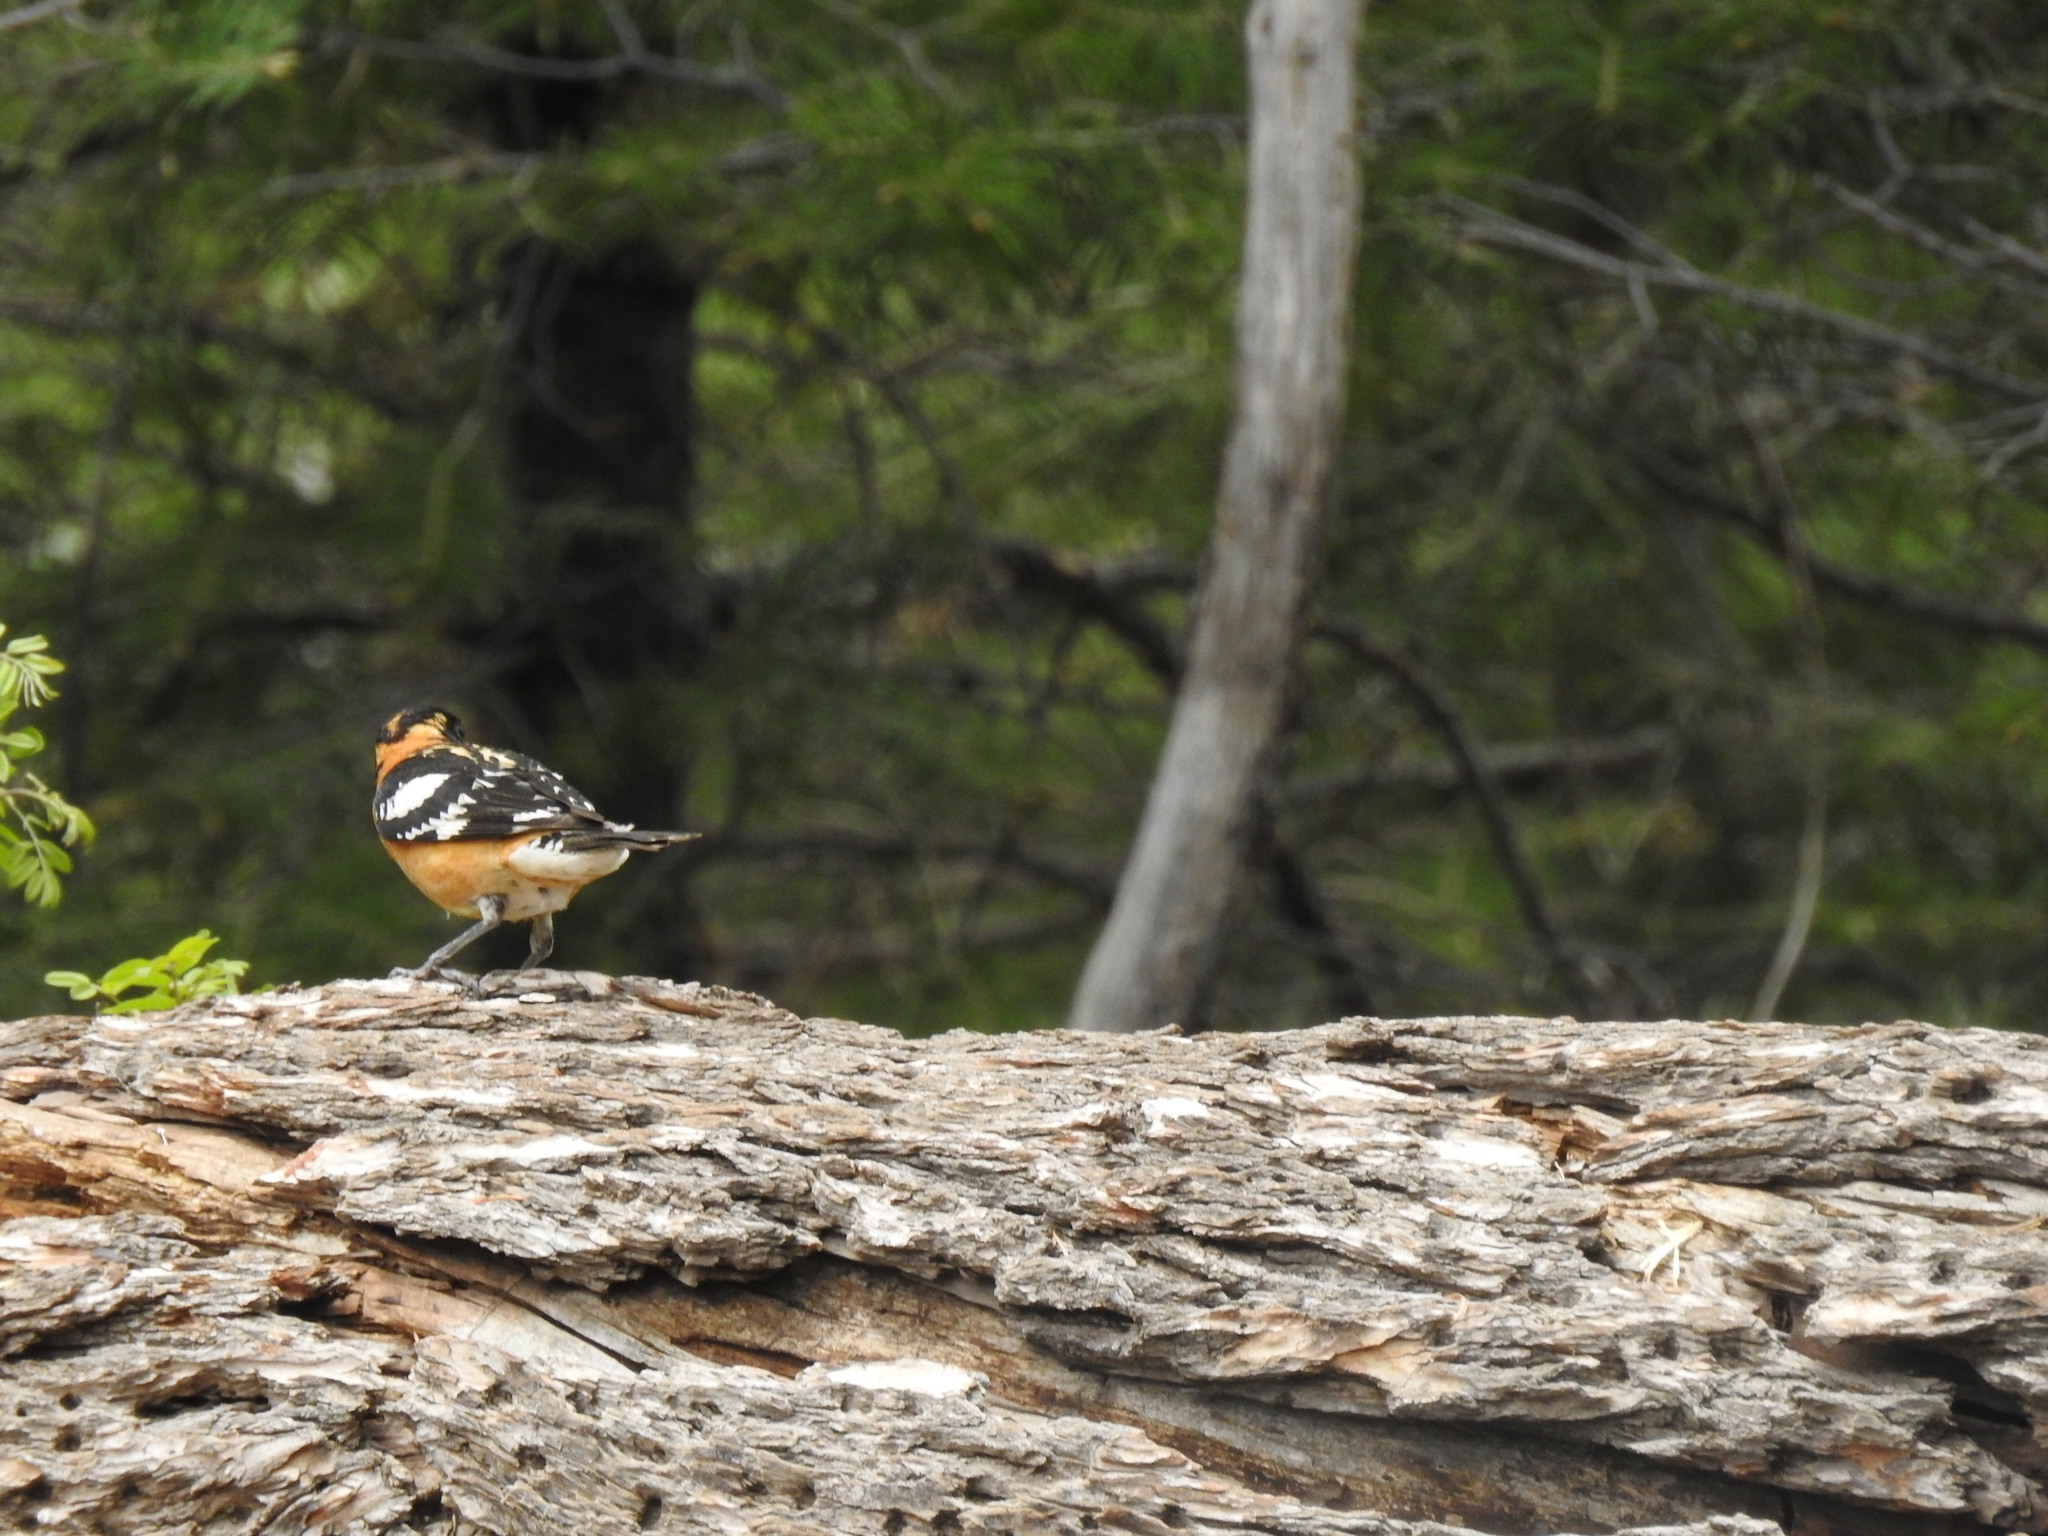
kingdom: Animalia
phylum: Chordata
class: Aves
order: Passeriformes
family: Cardinalidae
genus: Pheucticus
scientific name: Pheucticus melanocephalus
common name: Black-headed grosbeak
